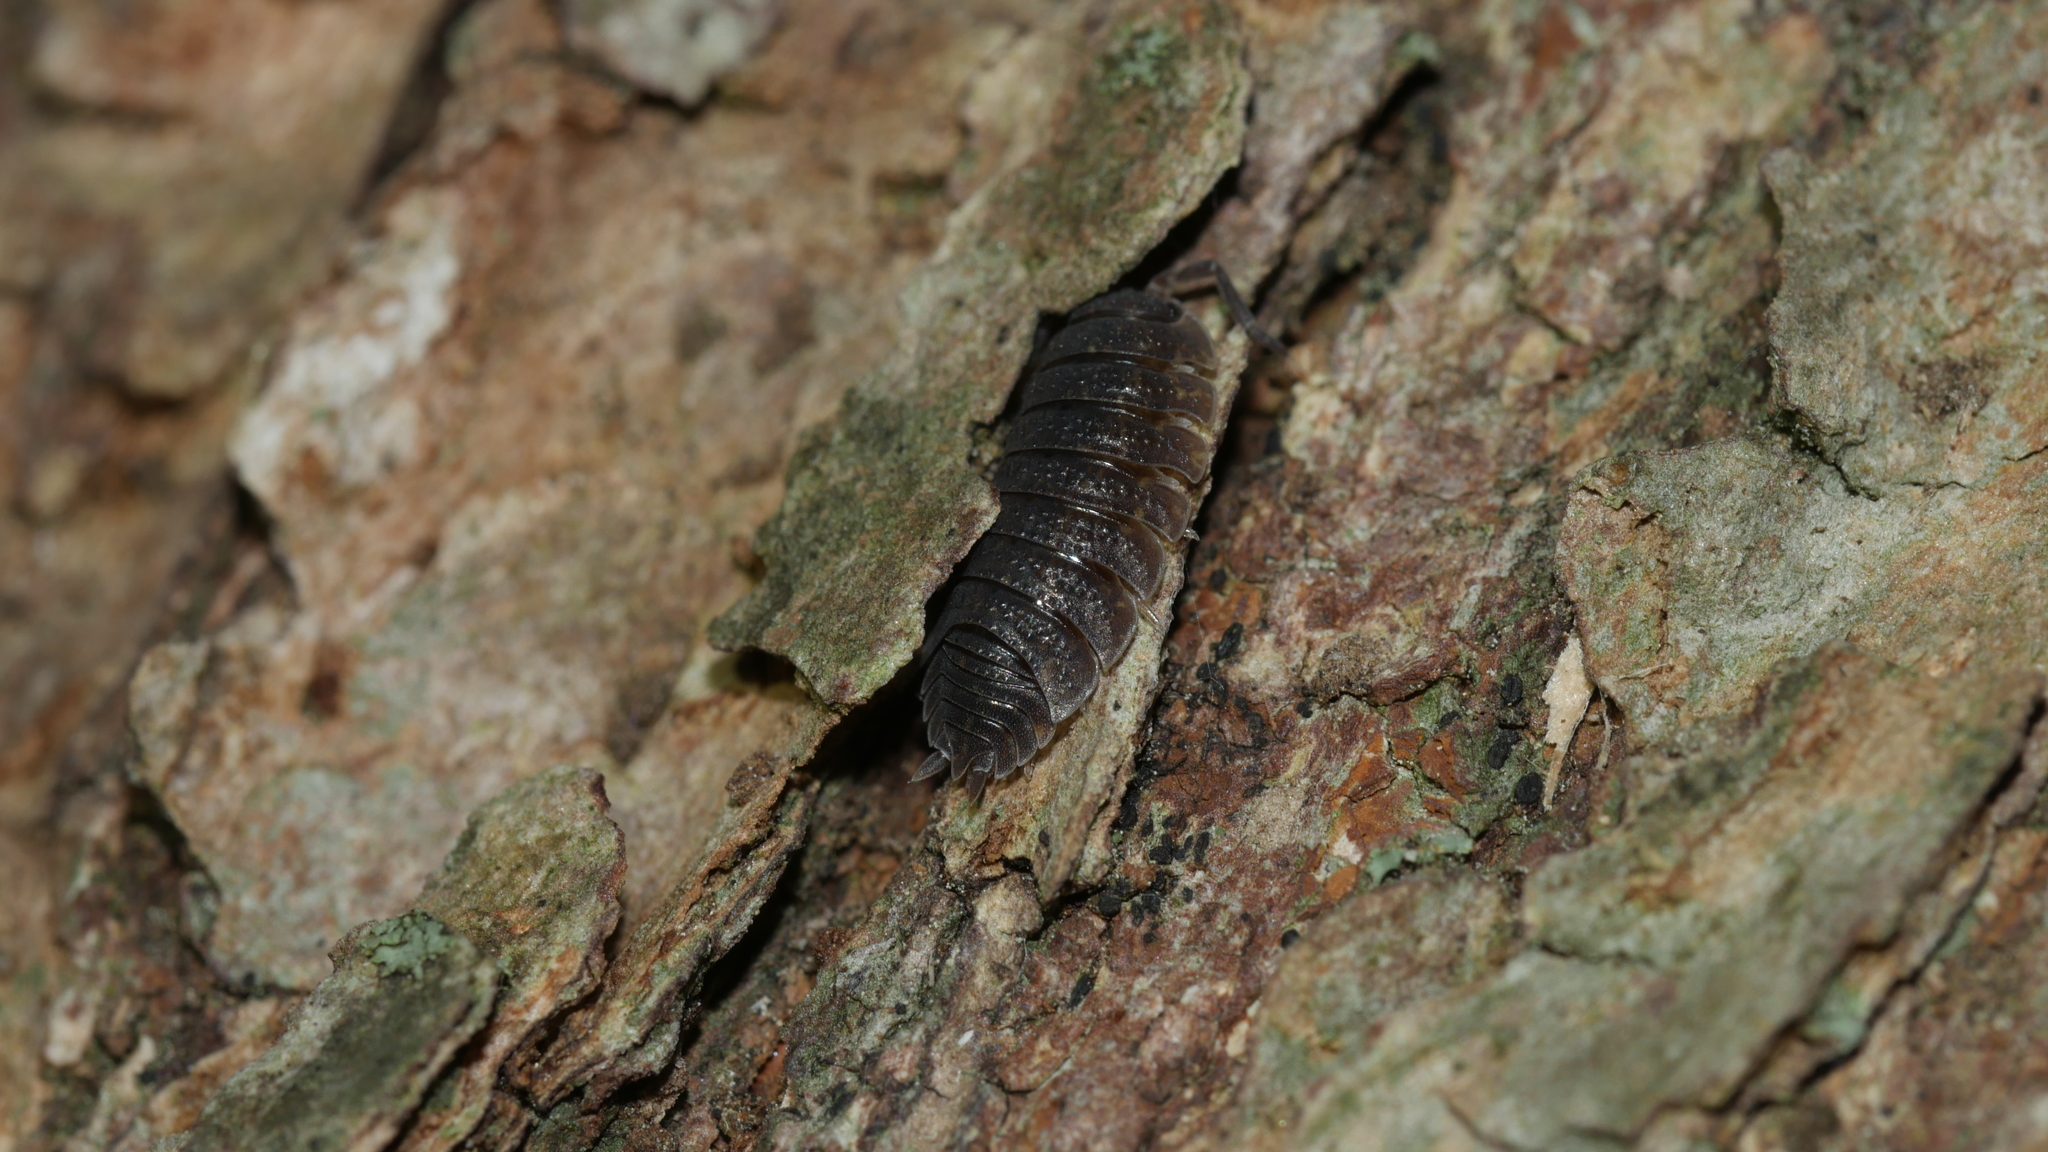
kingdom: Animalia
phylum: Arthropoda
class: Malacostraca
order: Isopoda
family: Porcellionidae
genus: Porcellio
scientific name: Porcellio scaber
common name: Common rough woodlouse
